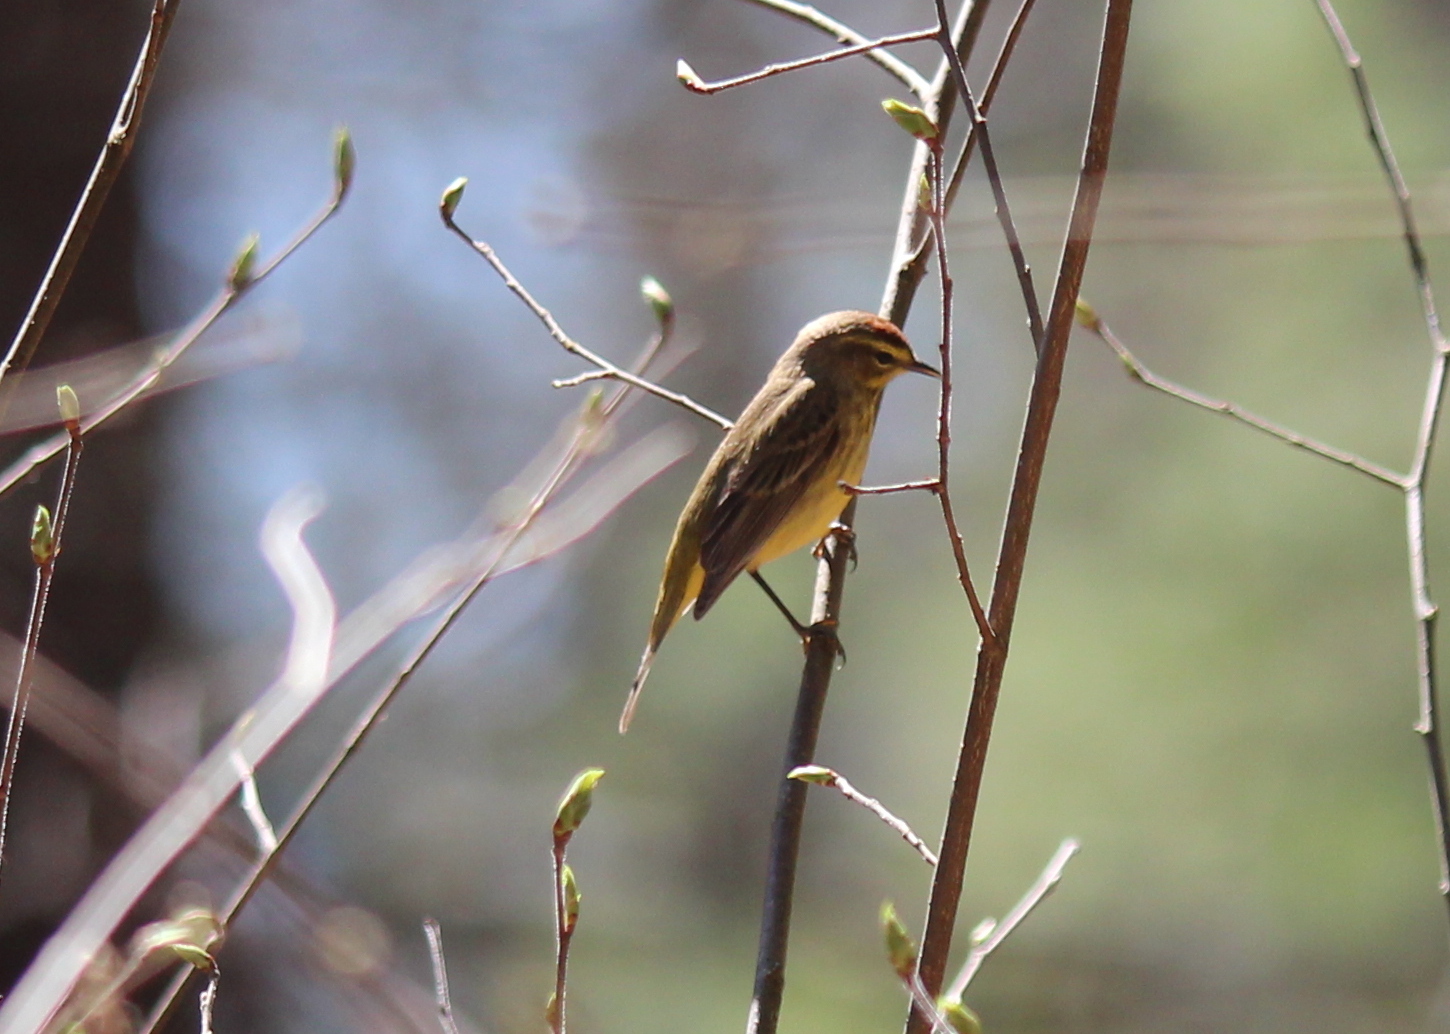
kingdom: Animalia
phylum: Chordata
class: Aves
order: Passeriformes
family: Parulidae
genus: Setophaga
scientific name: Setophaga palmarum
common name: Palm warbler
